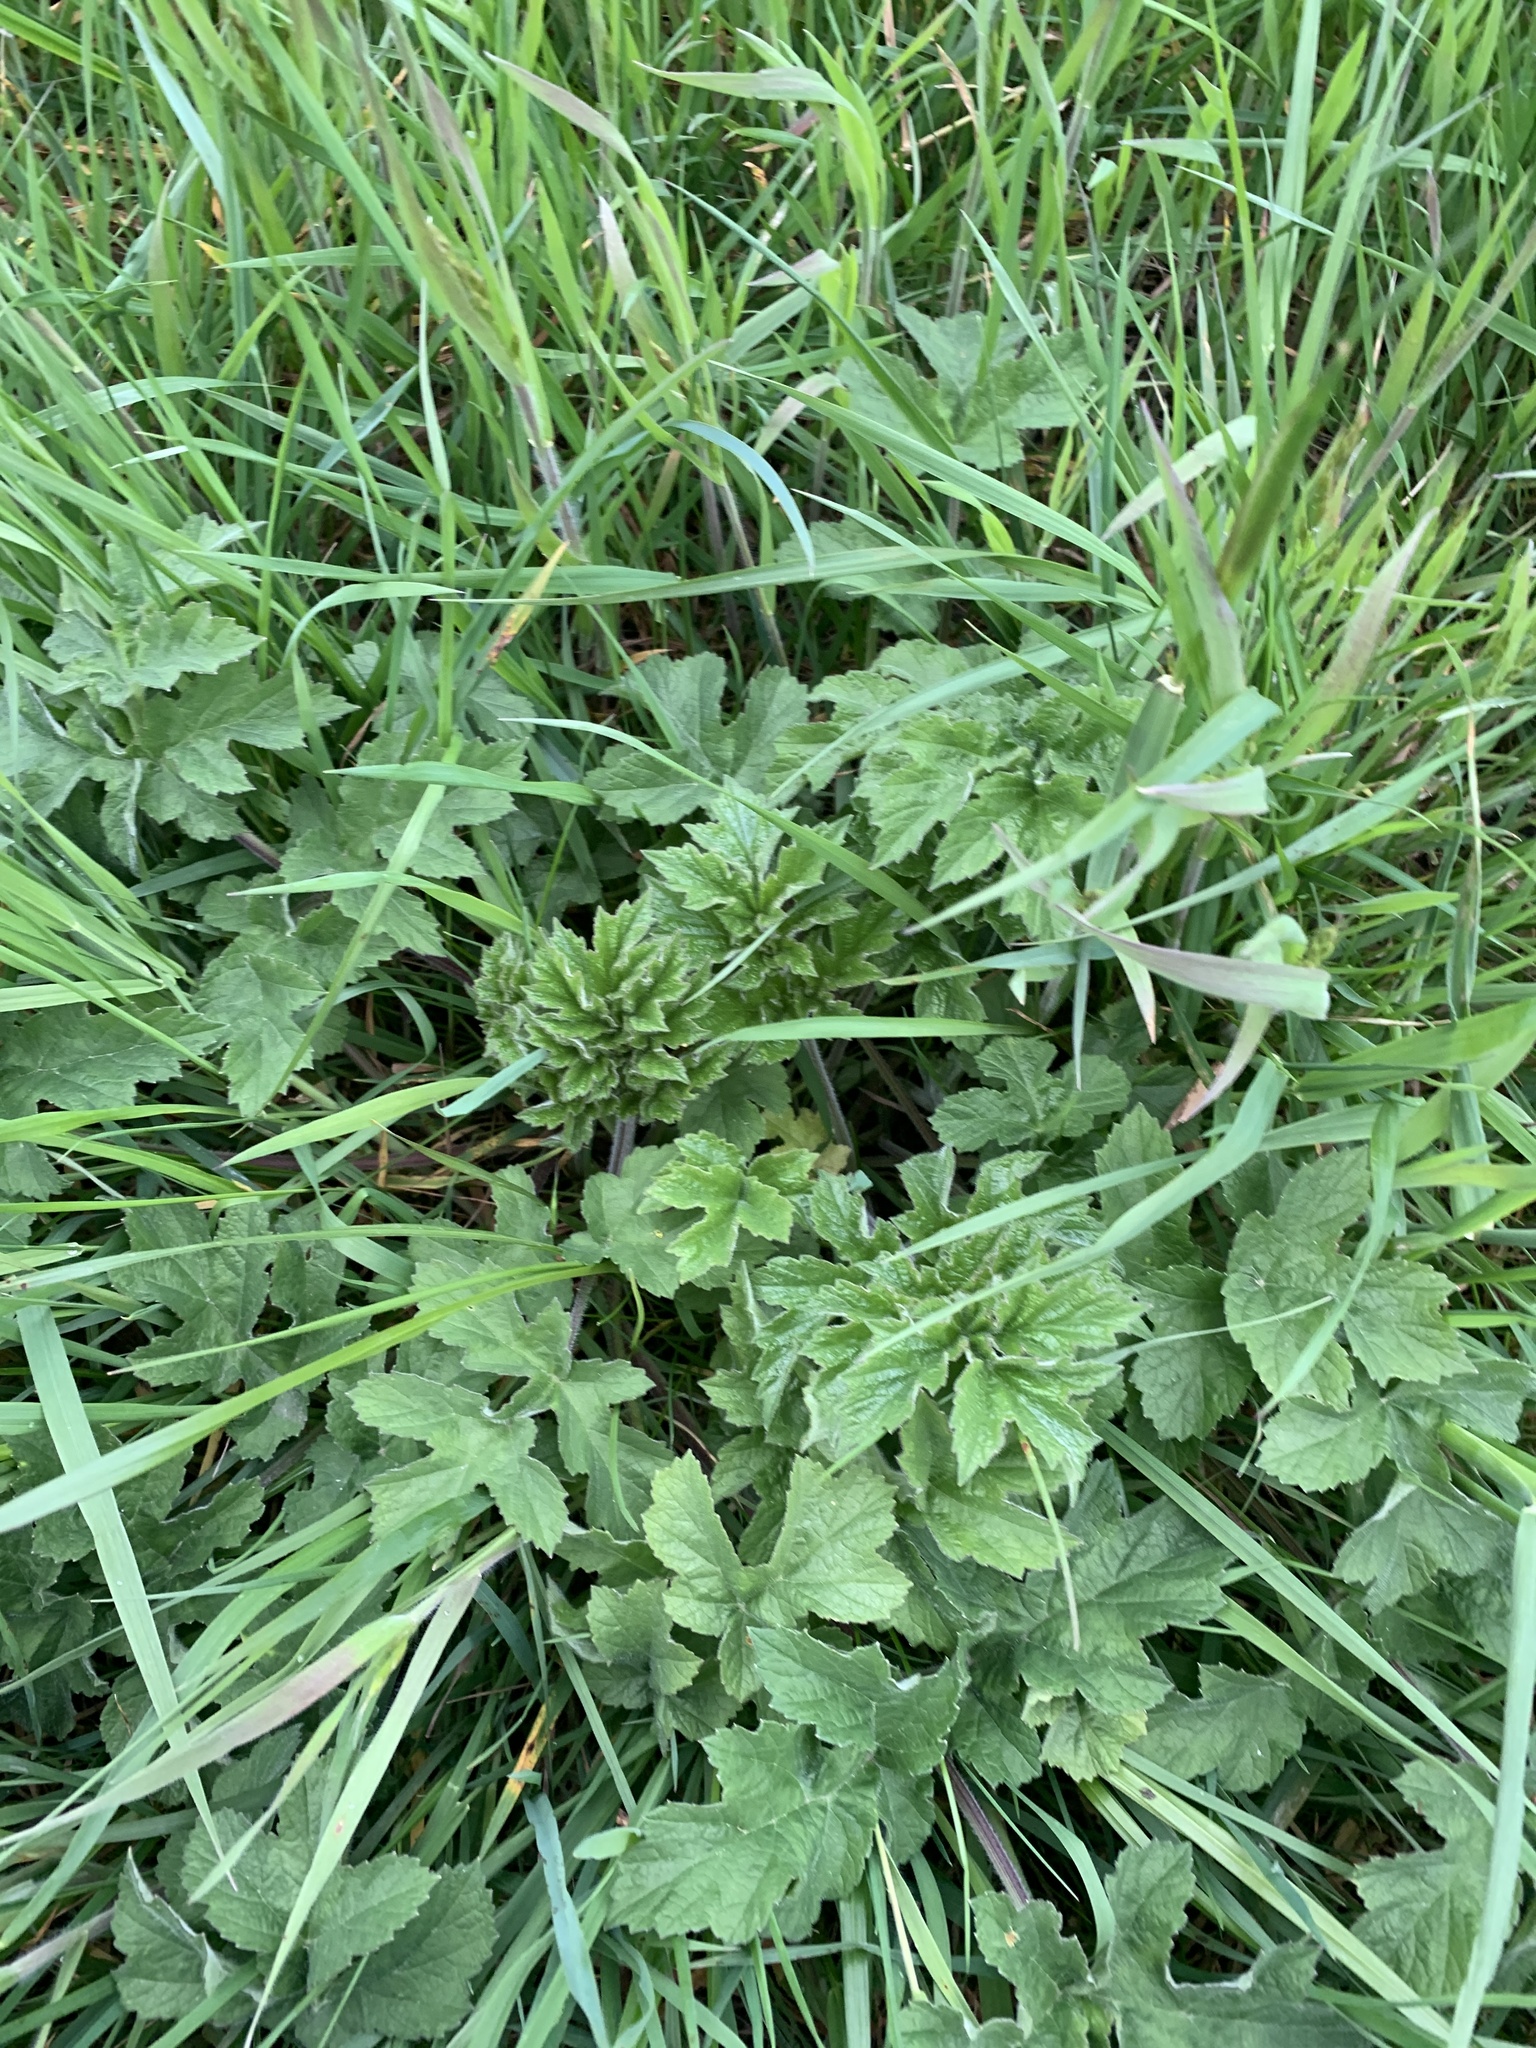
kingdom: Plantae
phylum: Tracheophyta
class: Magnoliopsida
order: Apiales
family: Apiaceae
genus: Heracleum
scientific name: Heracleum sphondylium
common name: Hogweed
